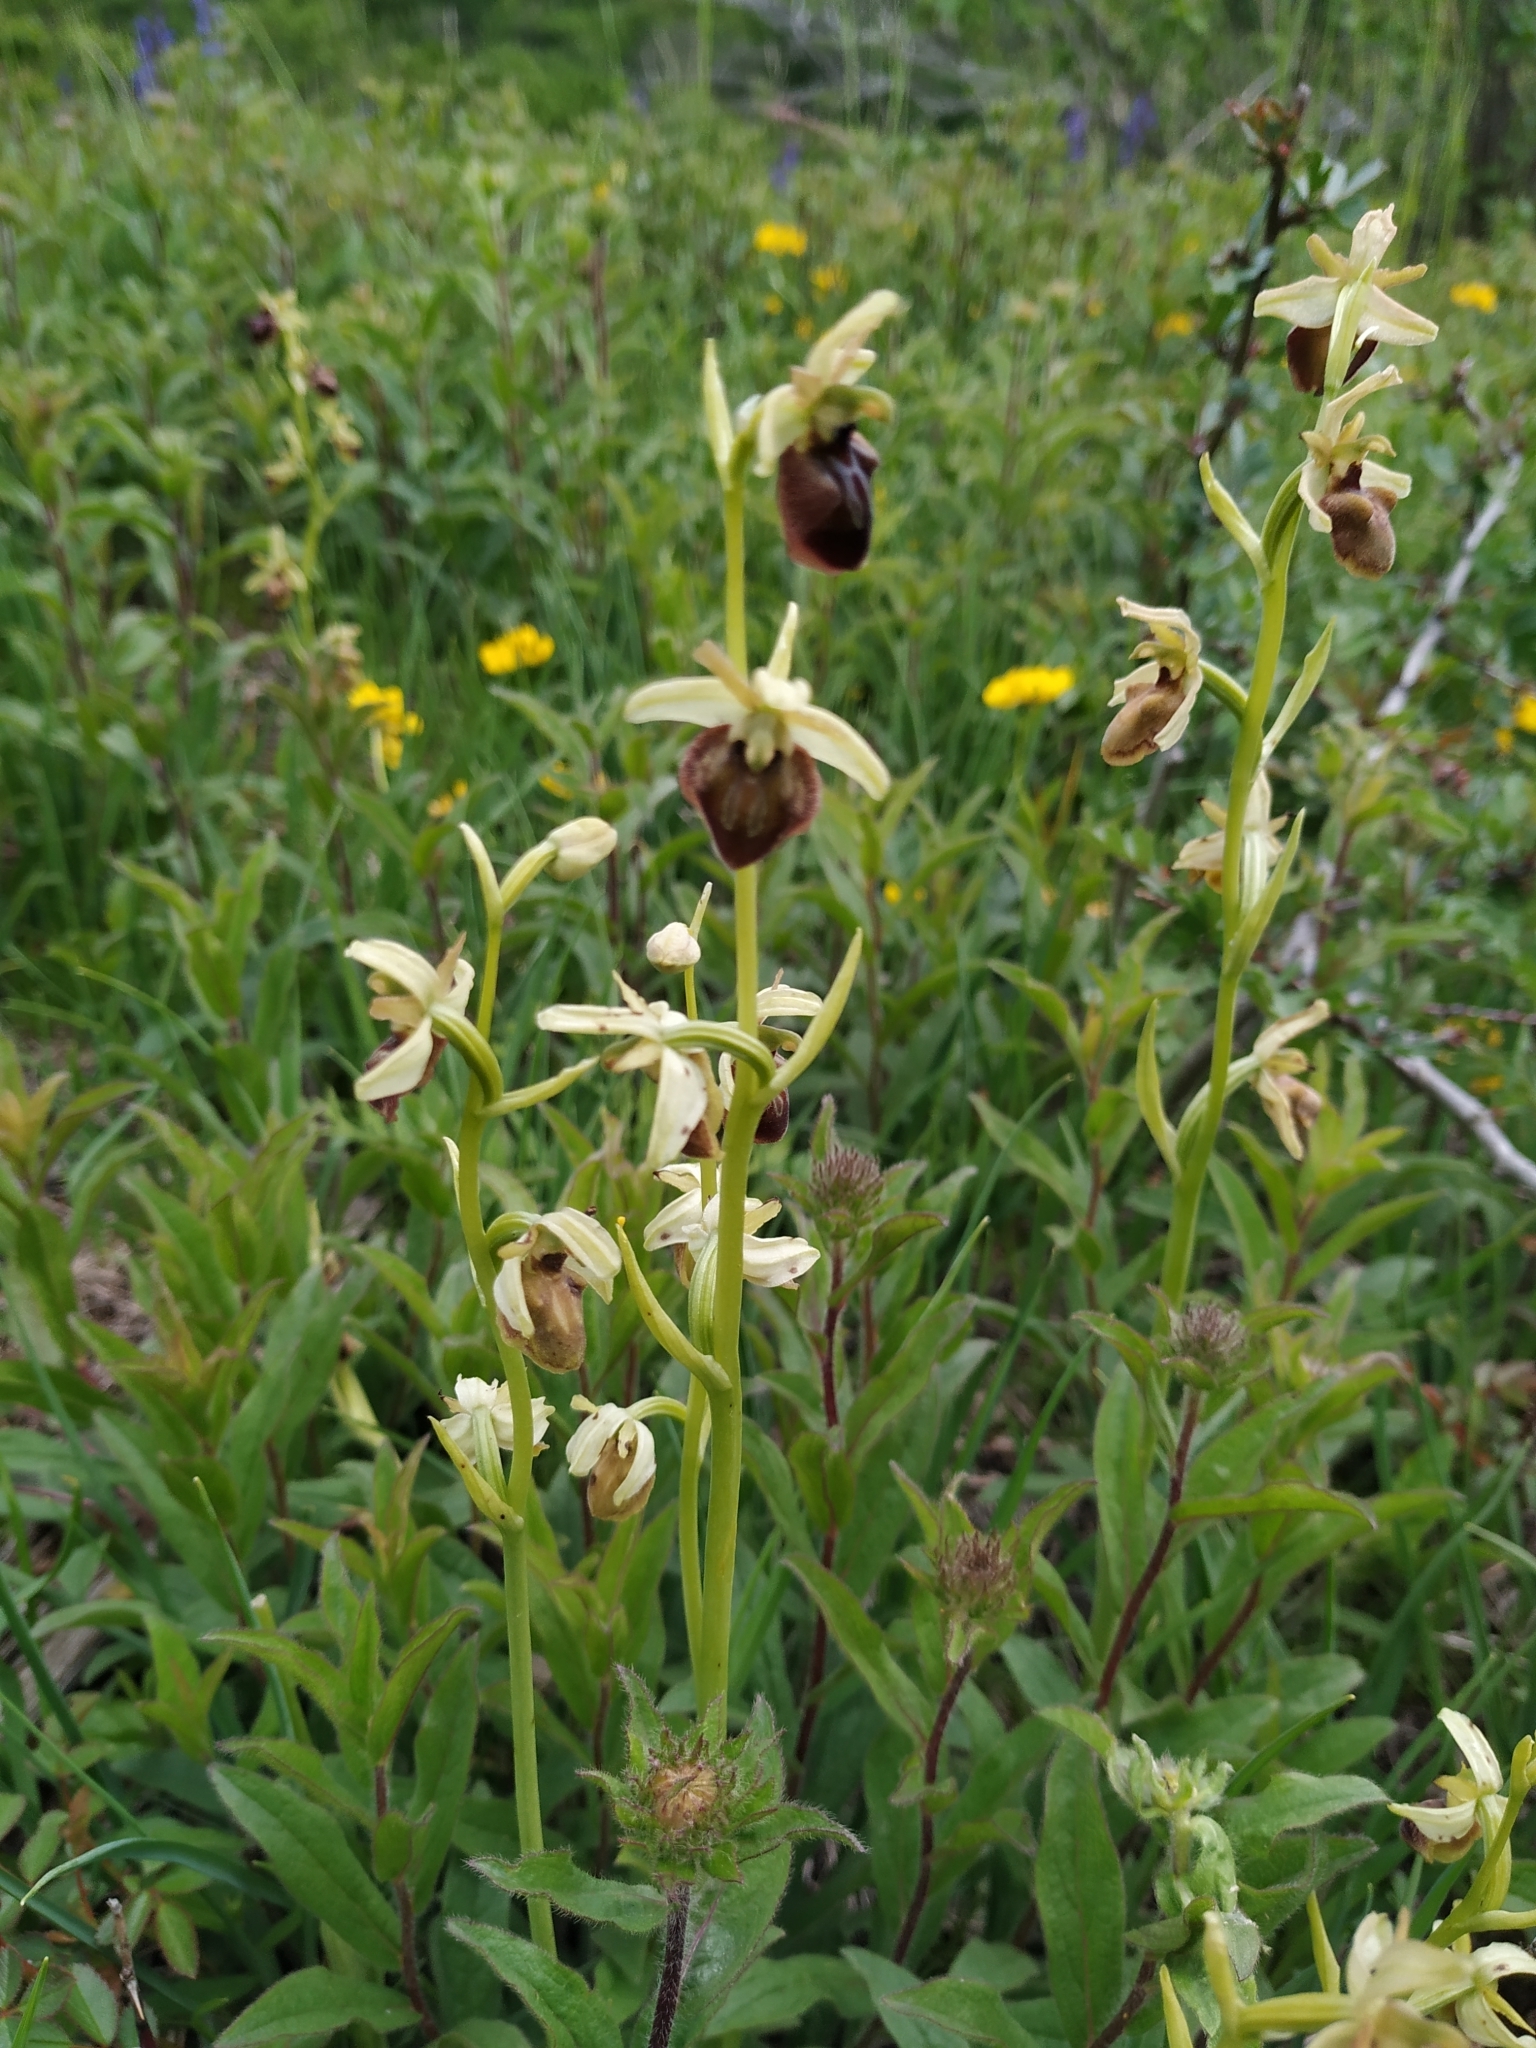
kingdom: Plantae
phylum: Tracheophyta
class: Liliopsida
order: Asparagales
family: Orchidaceae
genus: Ophrys
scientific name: Ophrys sphegodes
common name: Early spider-orchid
